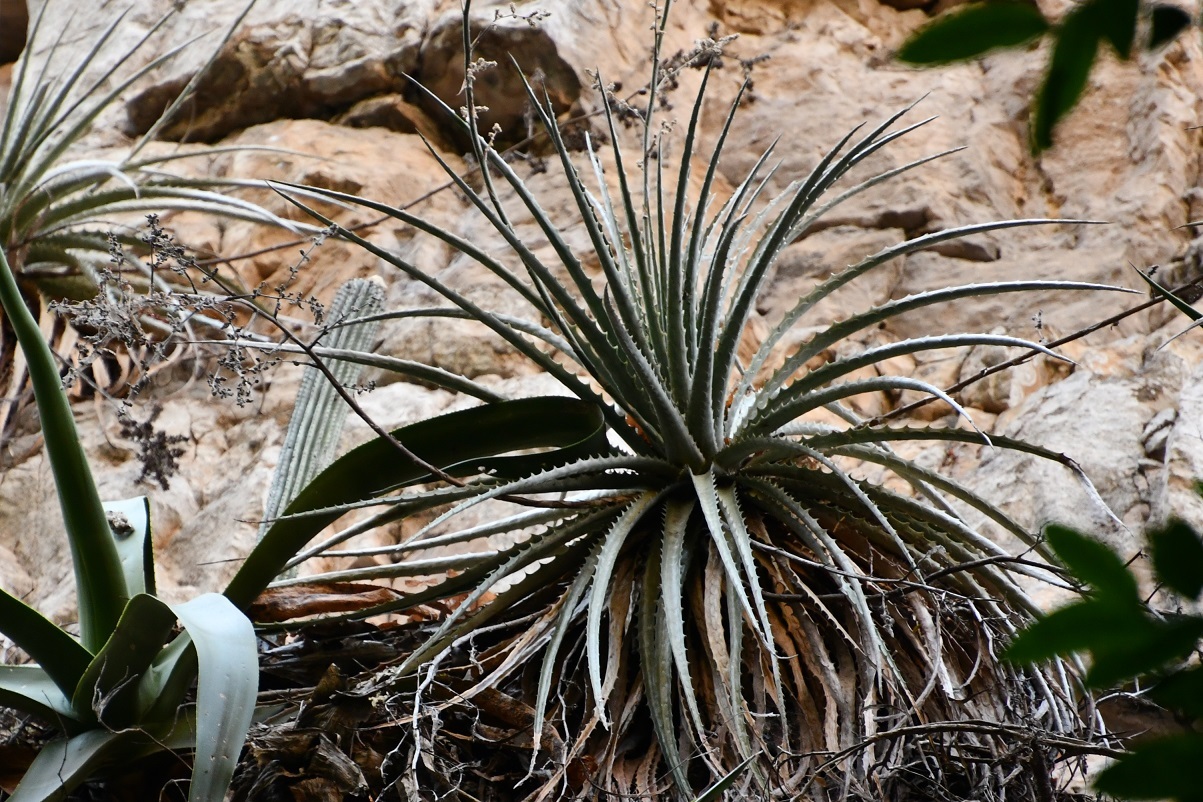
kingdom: Plantae
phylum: Tracheophyta
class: Liliopsida
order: Poales
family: Bromeliaceae
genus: Hechtia
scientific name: Hechtia glomerata
